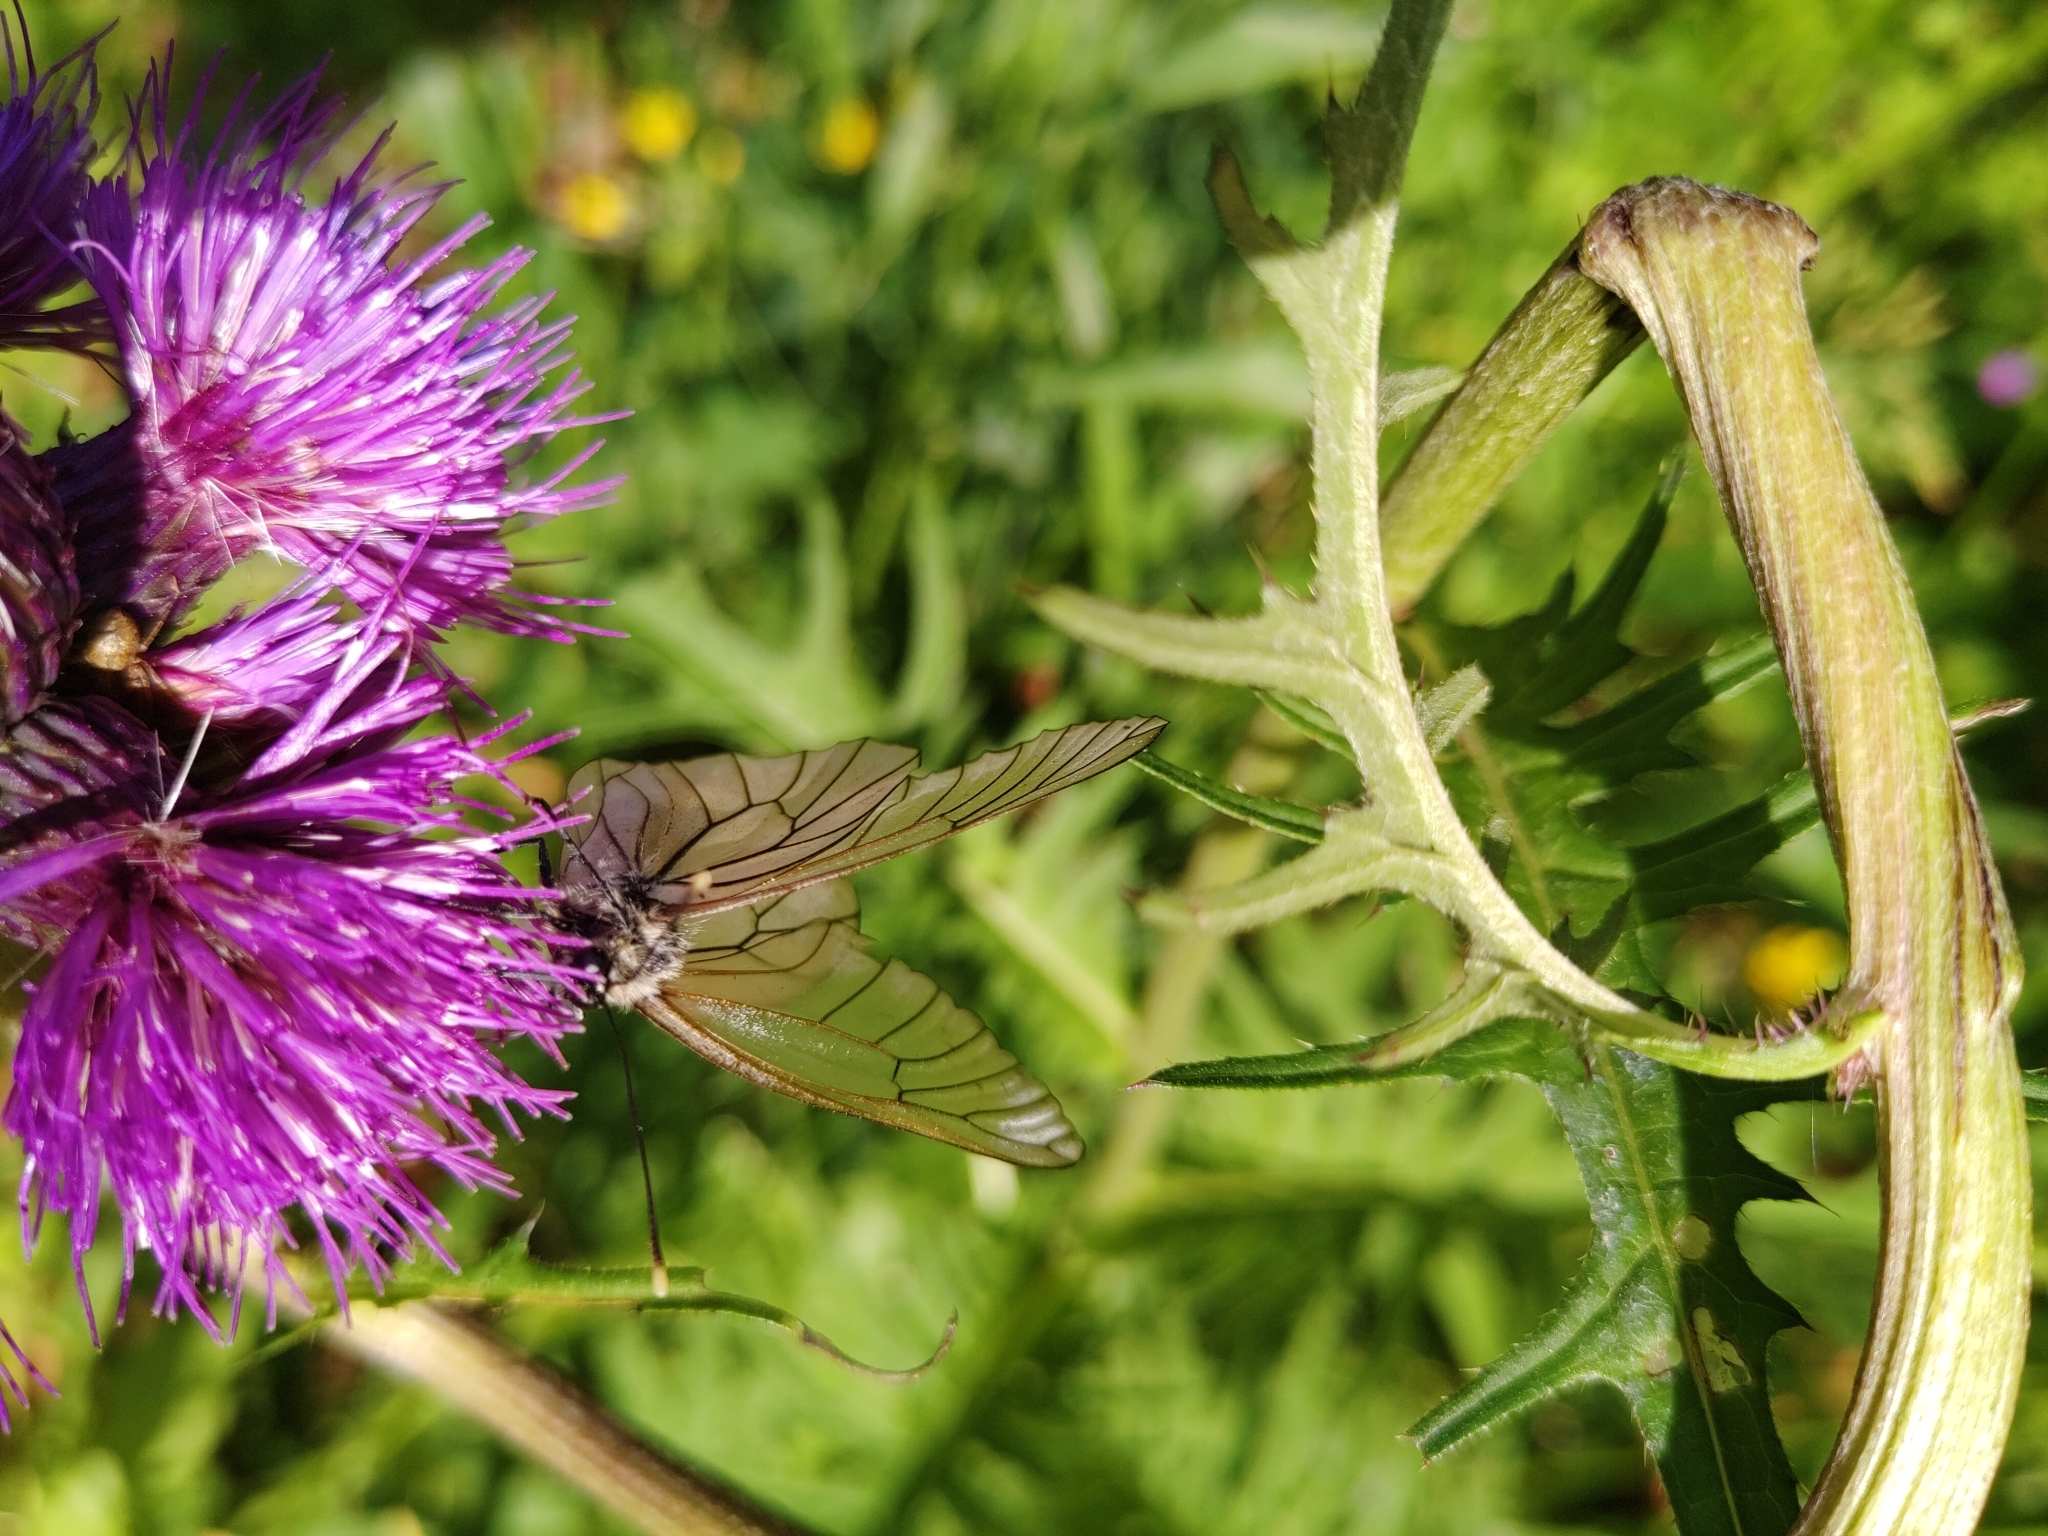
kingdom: Animalia
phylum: Arthropoda
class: Insecta
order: Lepidoptera
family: Pieridae
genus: Aporia
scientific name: Aporia crataegi
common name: Black-veined white
